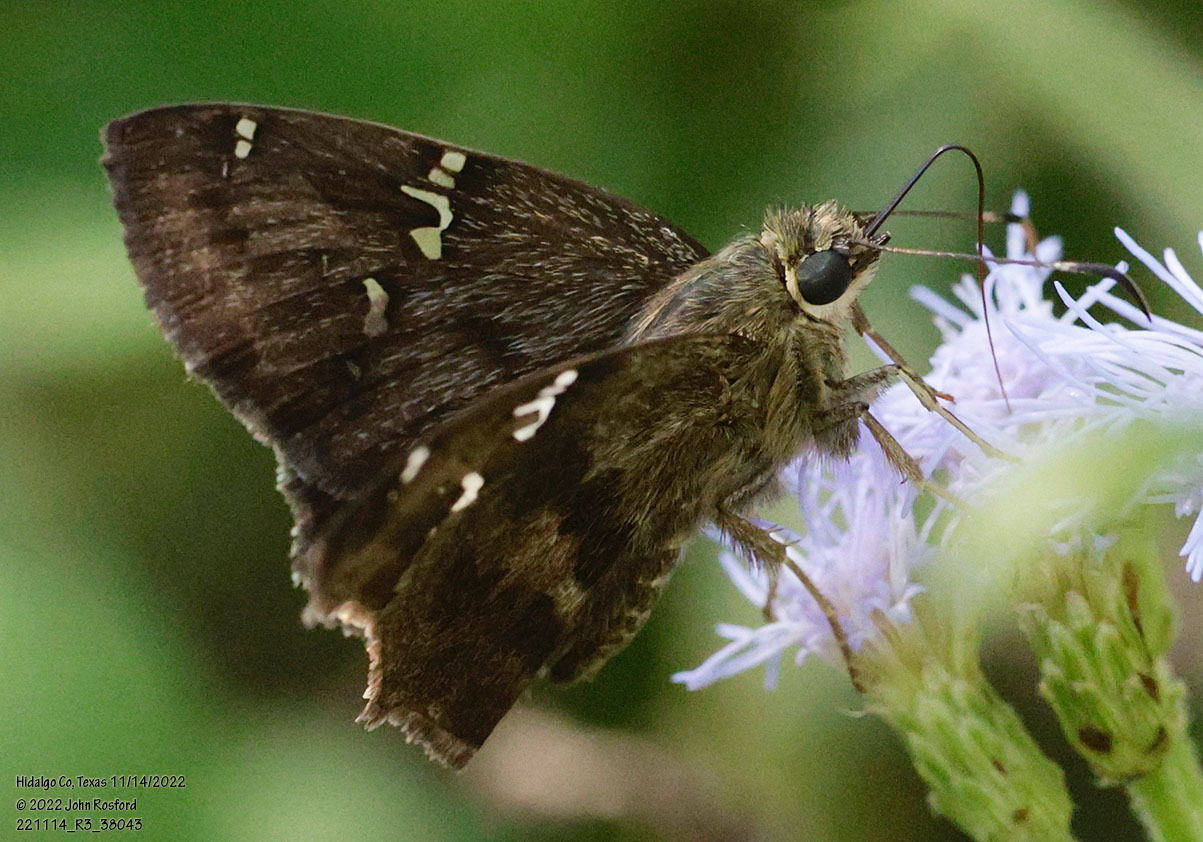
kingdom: Animalia
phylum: Arthropoda
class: Insecta
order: Lepidoptera
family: Hesperiidae
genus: Autochton
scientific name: Autochton potrillo
